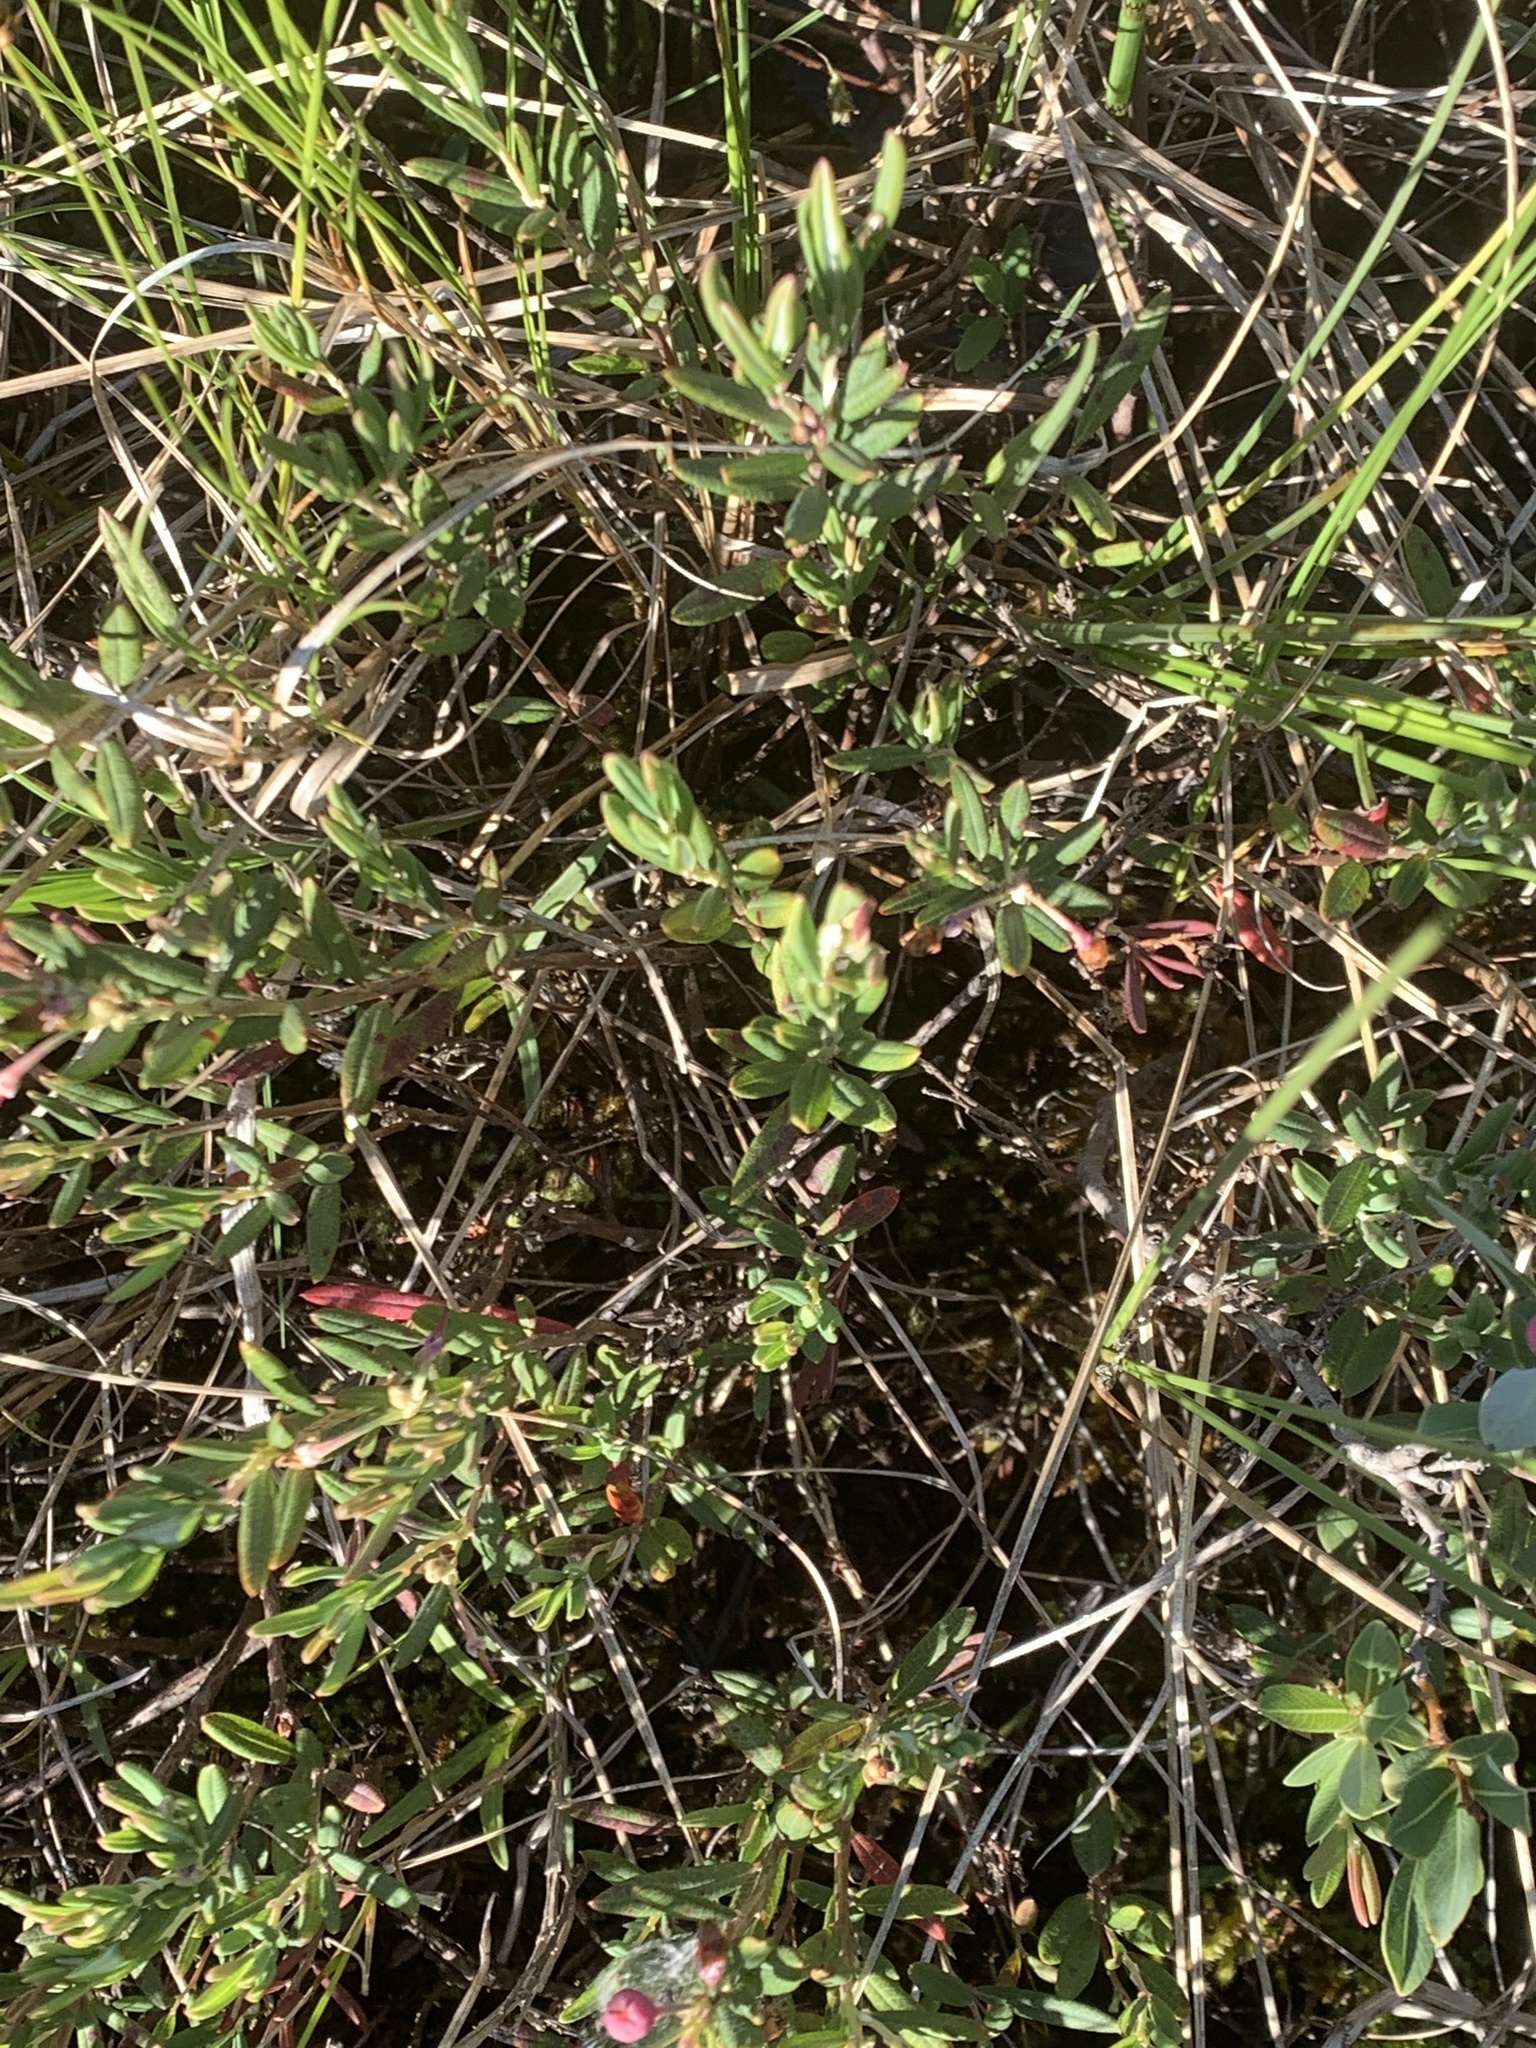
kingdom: Plantae
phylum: Tracheophyta
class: Magnoliopsida
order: Ericales
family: Ericaceae
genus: Andromeda
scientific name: Andromeda polifolia
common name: Bog-rosemary
